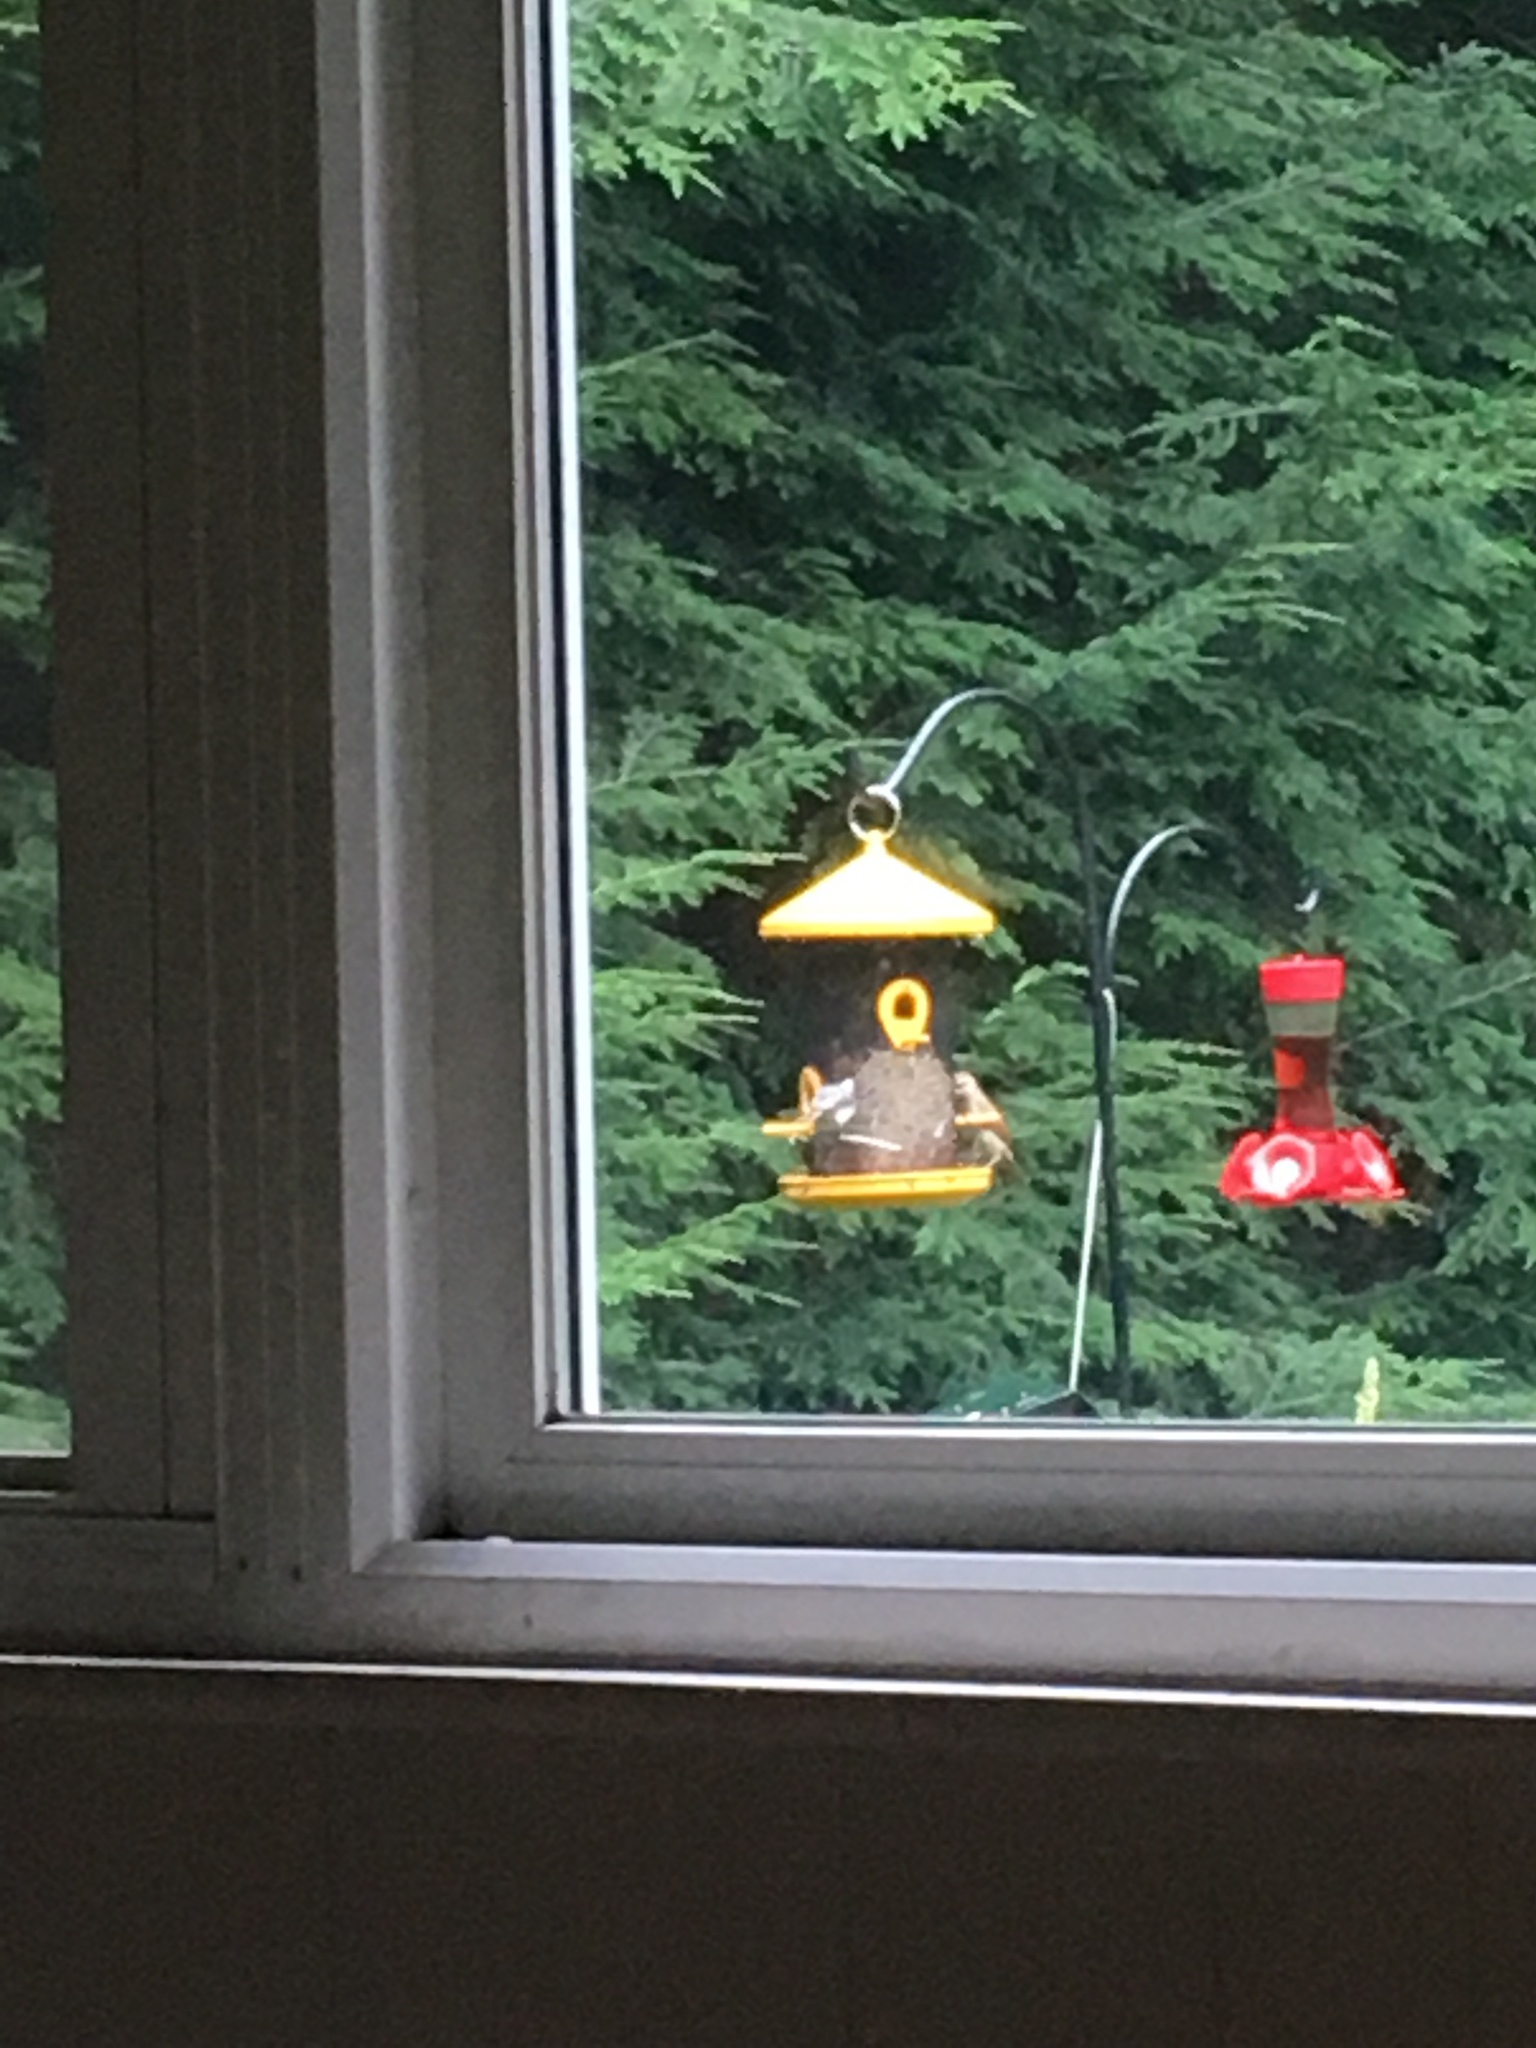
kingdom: Animalia
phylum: Chordata
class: Aves
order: Passeriformes
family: Troglodytidae
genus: Thryothorus
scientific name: Thryothorus ludovicianus
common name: Carolina wren
